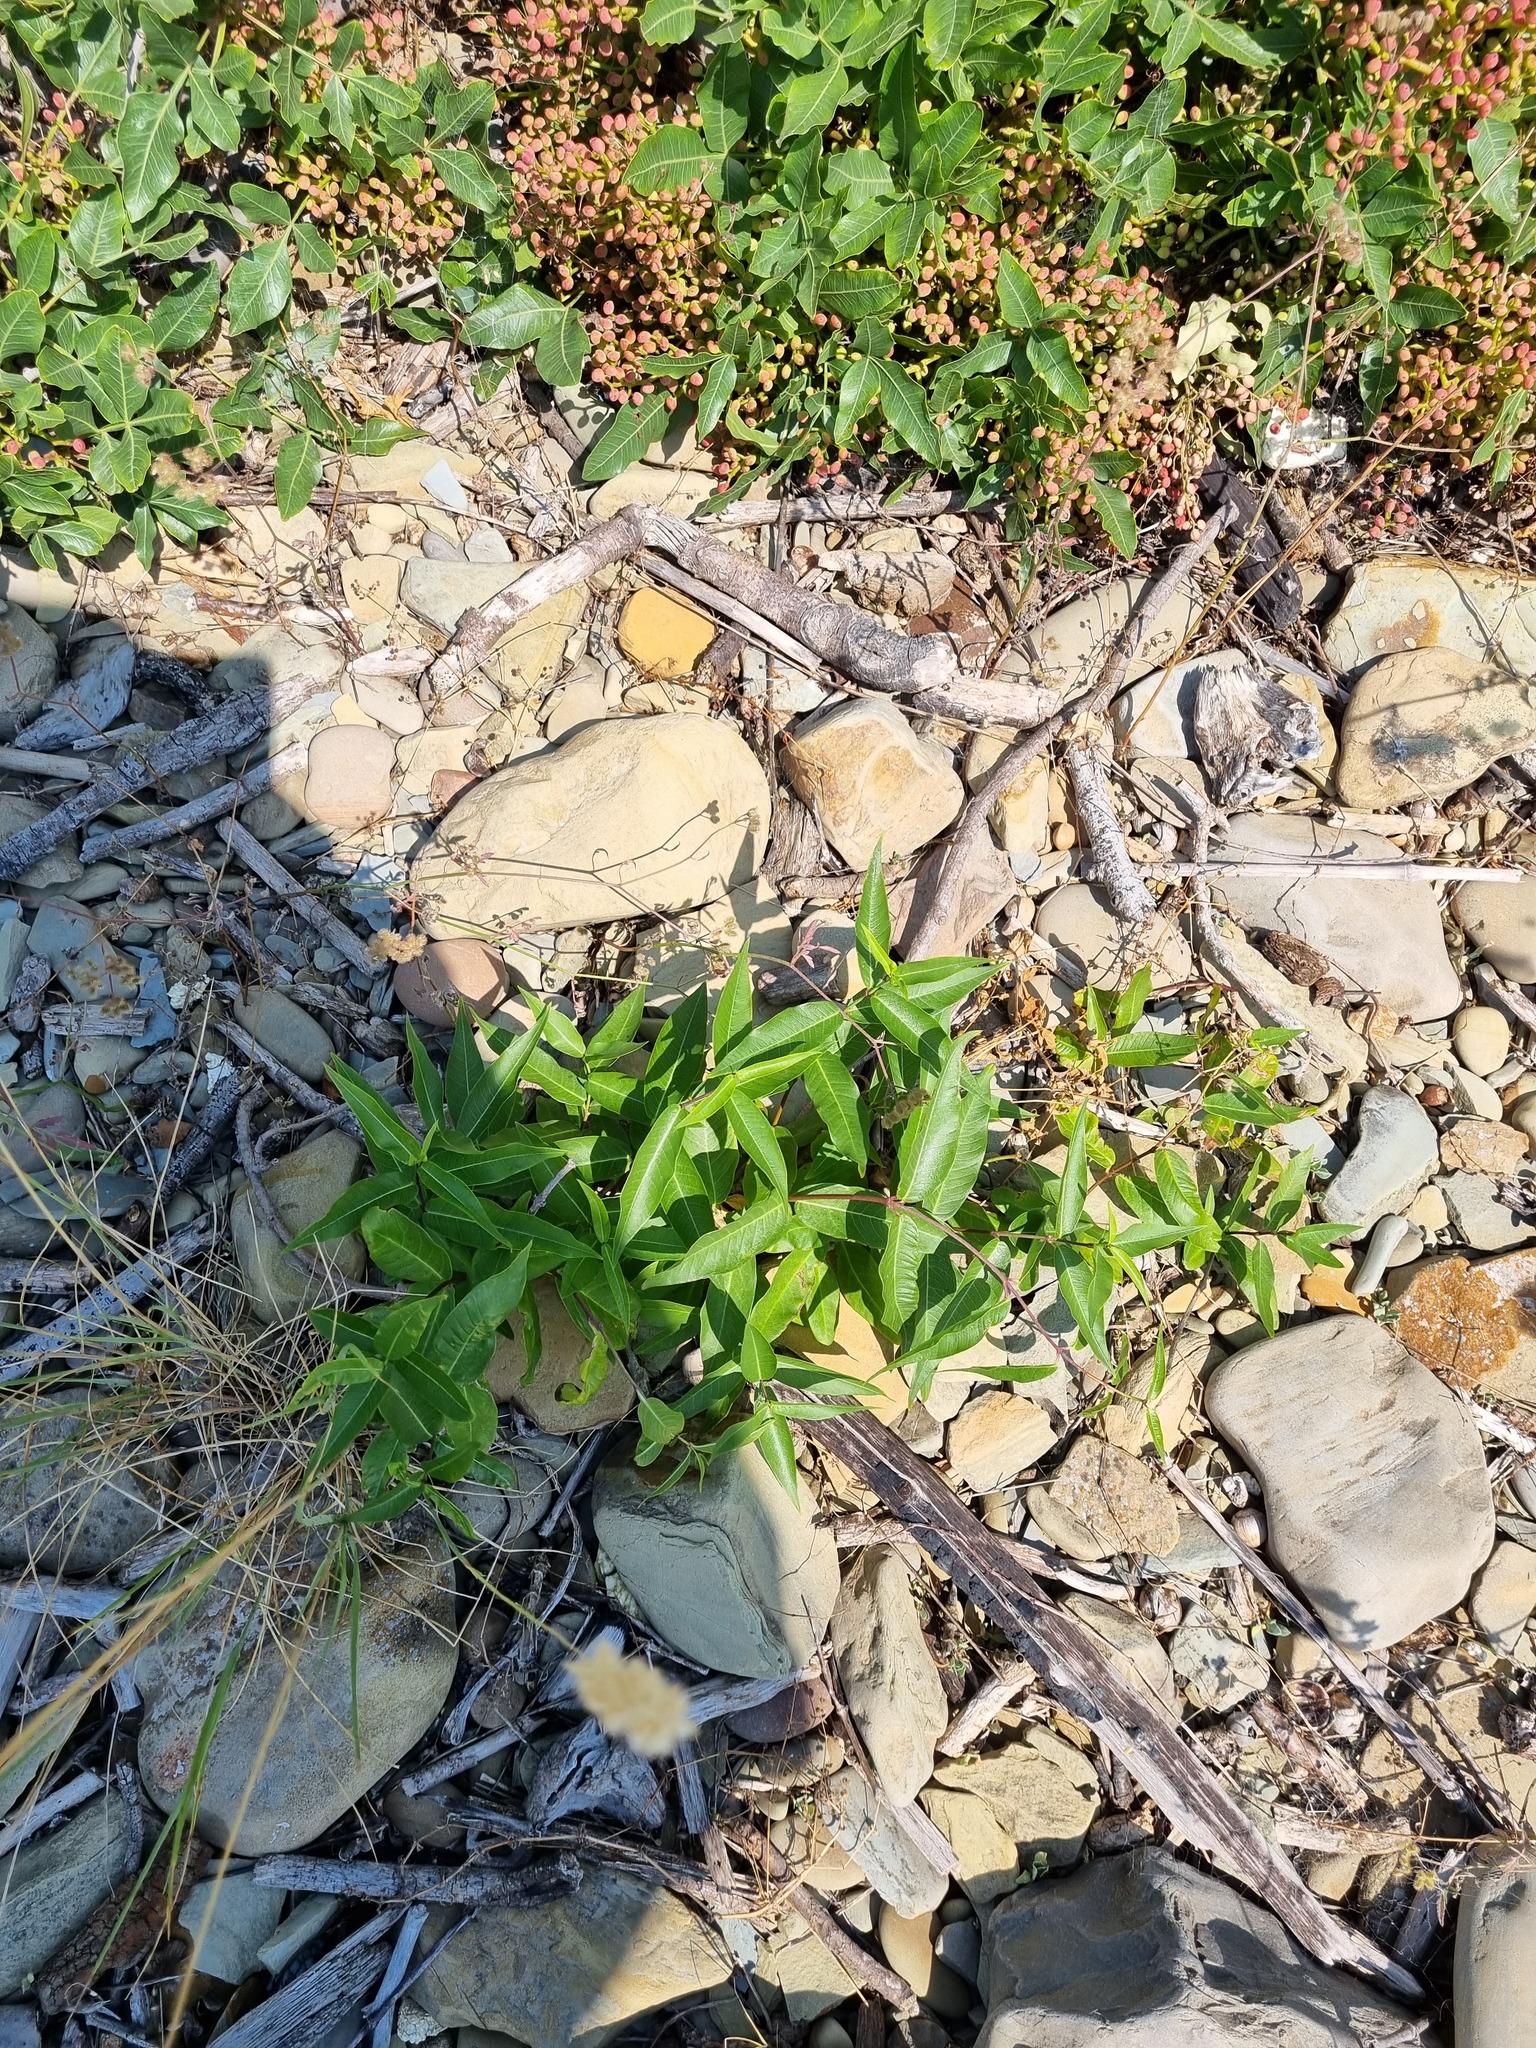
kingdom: Plantae
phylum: Tracheophyta
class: Magnoliopsida
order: Sapindales
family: Anacardiaceae
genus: Pistacia
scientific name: Pistacia atlantica
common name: Mt. atlas mastic tree
